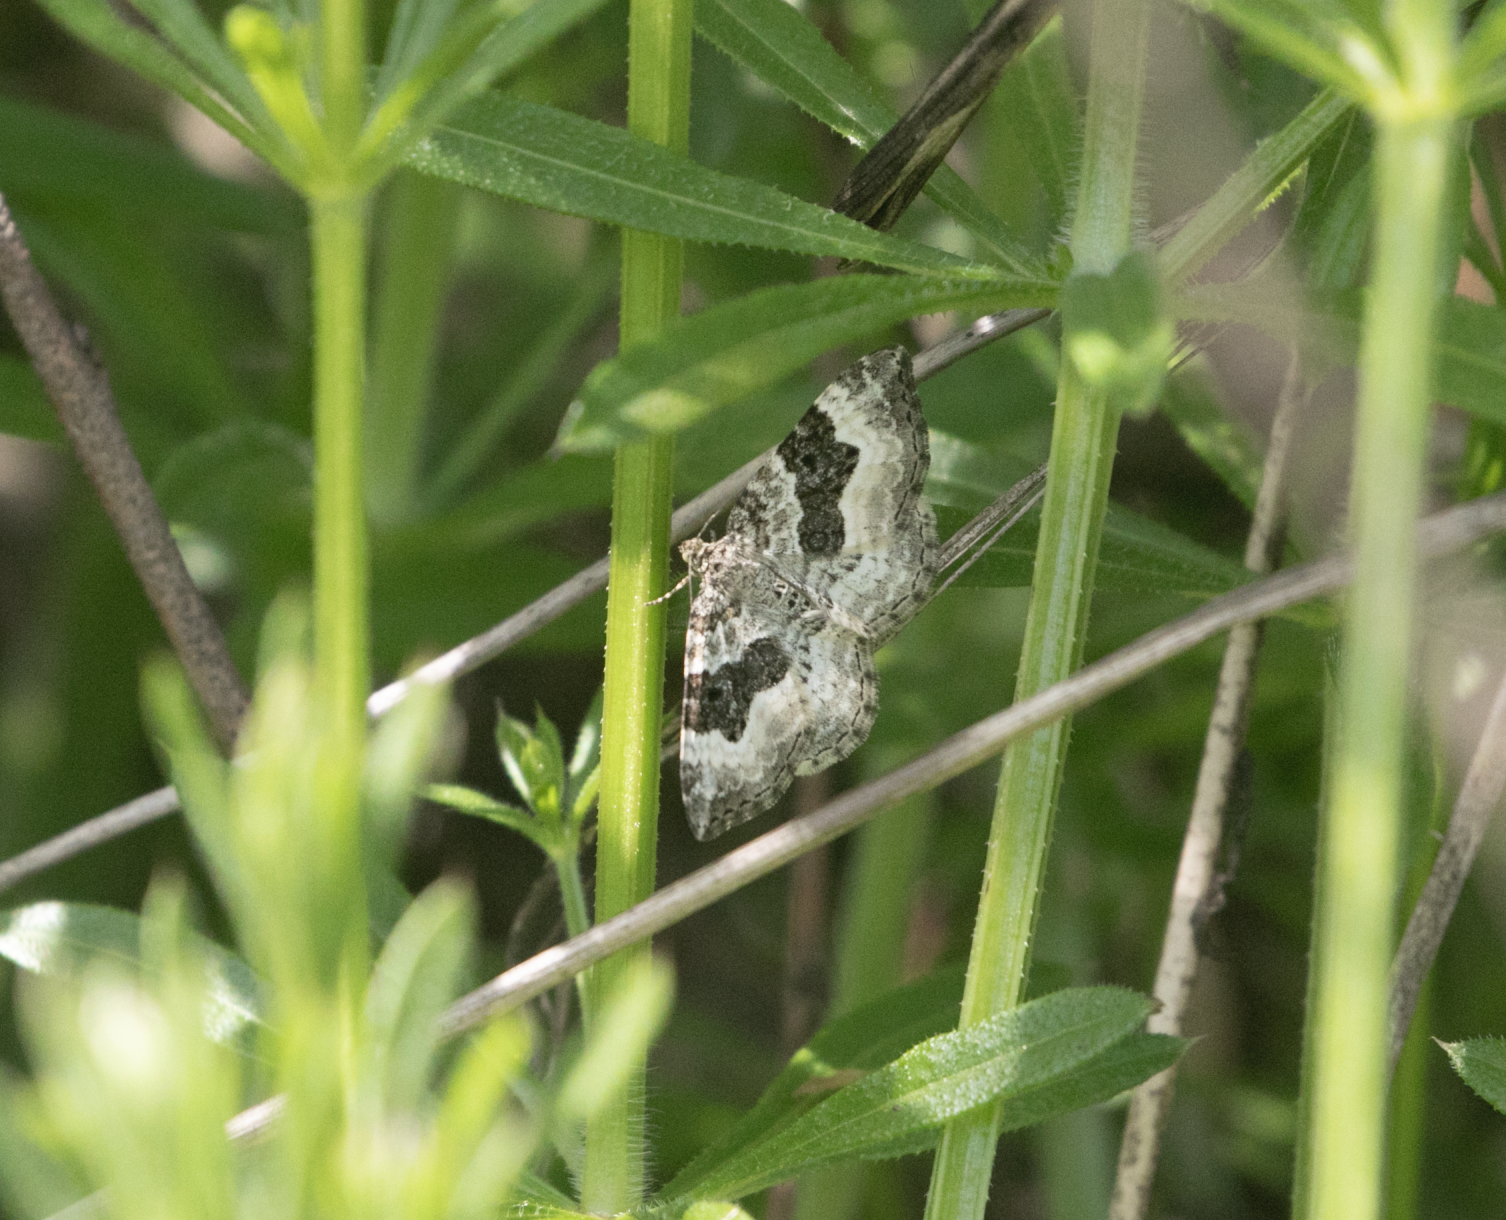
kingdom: Animalia
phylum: Arthropoda
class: Insecta
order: Lepidoptera
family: Geometridae
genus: Epirrhoe
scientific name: Epirrhoe alternata
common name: Common carpet
